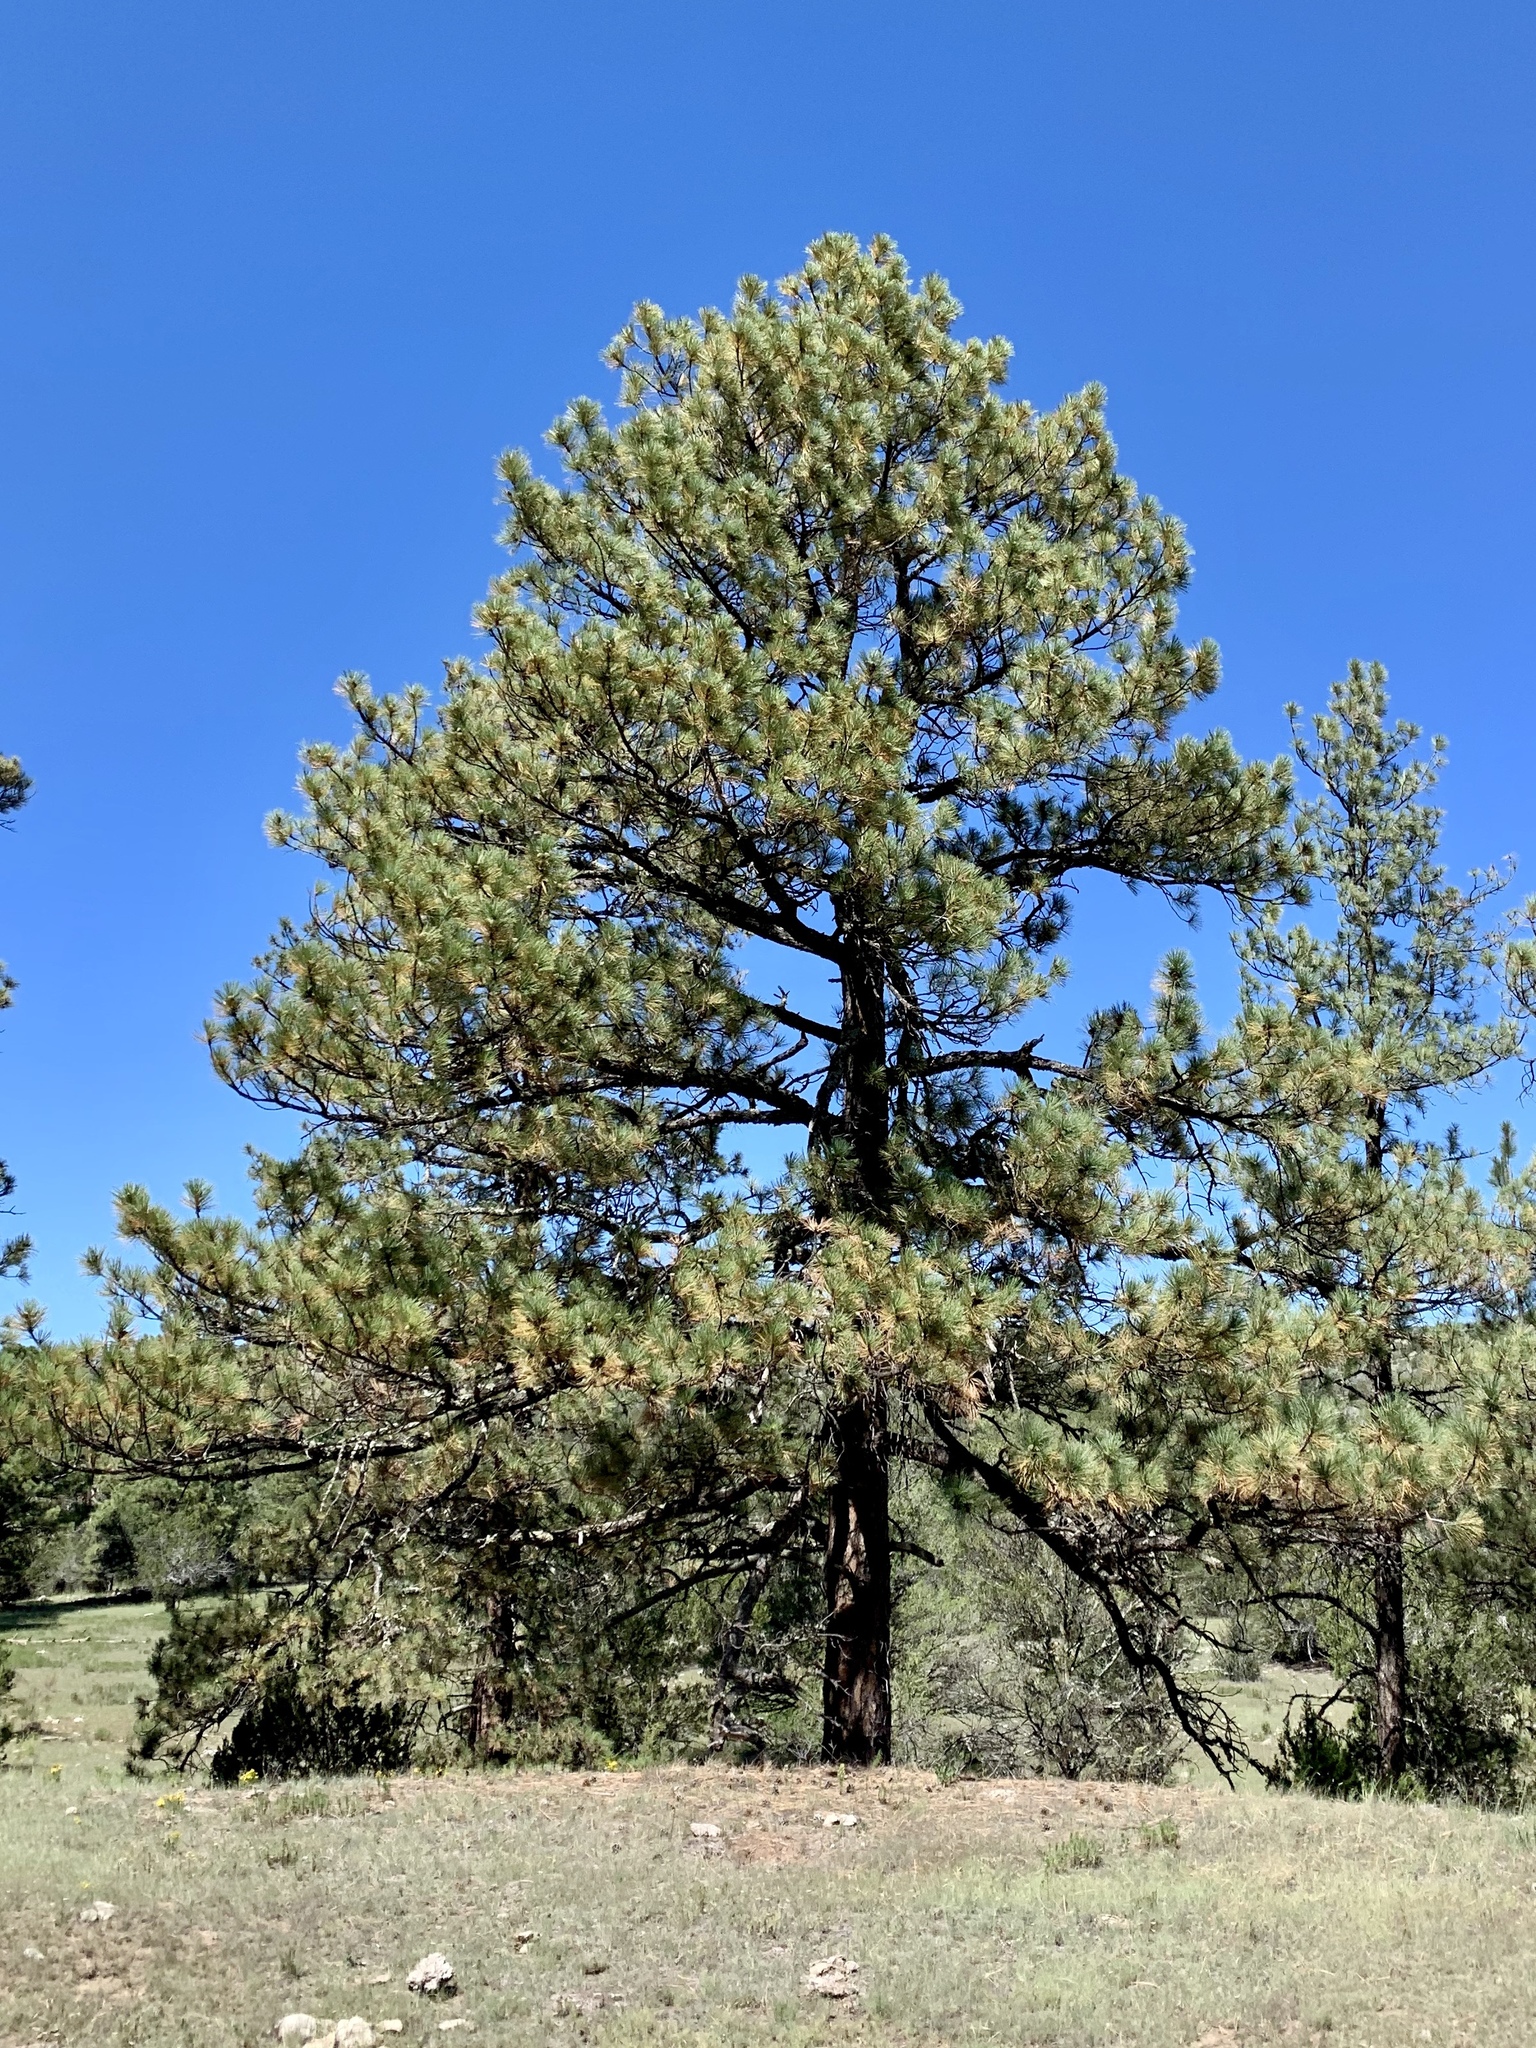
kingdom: Plantae
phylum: Tracheophyta
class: Pinopsida
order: Pinales
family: Pinaceae
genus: Pinus
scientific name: Pinus ponderosa
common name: Western yellow-pine
